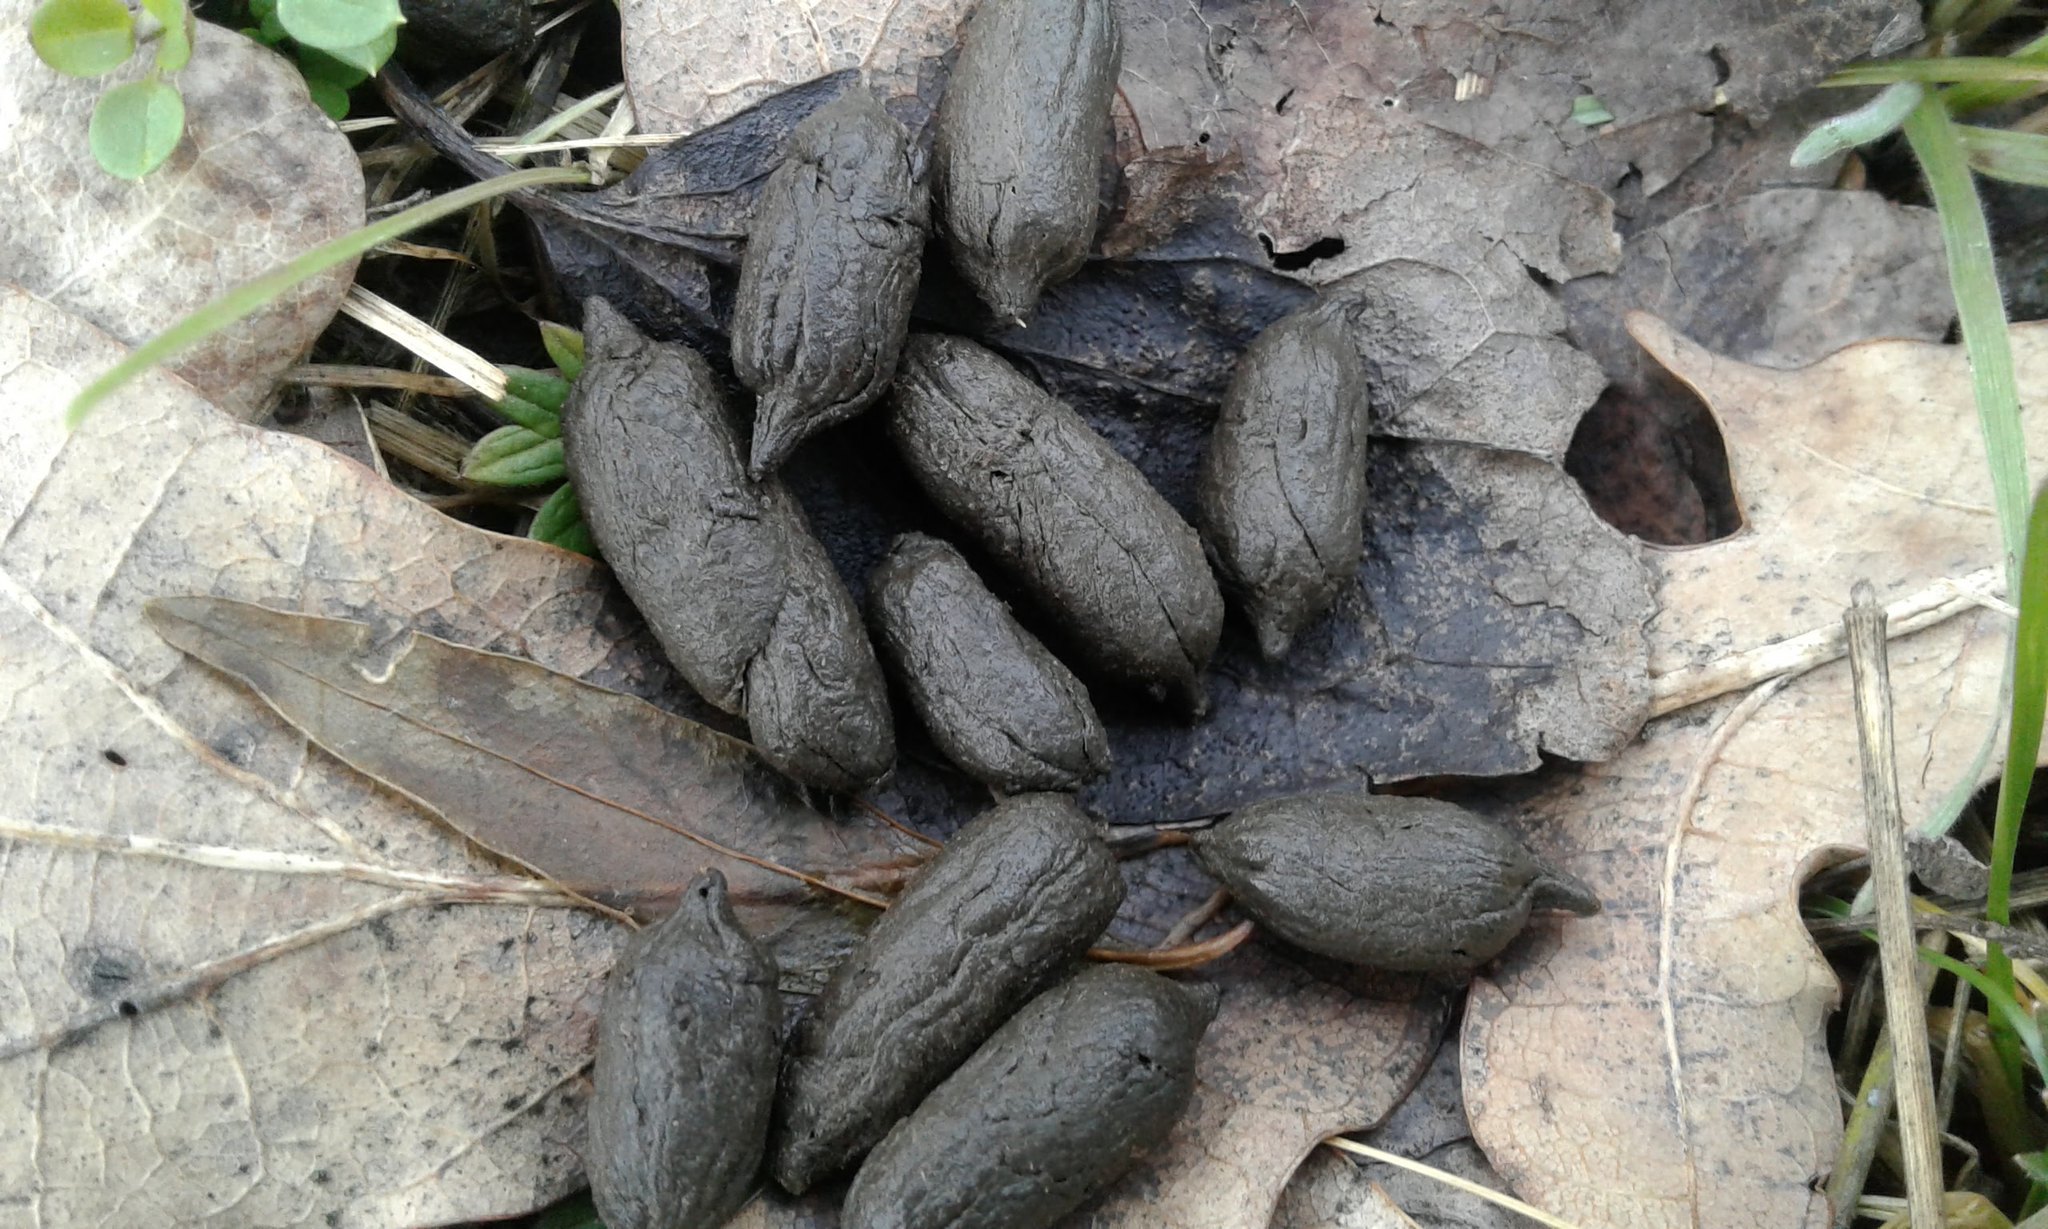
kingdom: Animalia
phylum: Chordata
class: Mammalia
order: Artiodactyla
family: Cervidae
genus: Capreolus
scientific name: Capreolus capreolus
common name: Western roe deer
